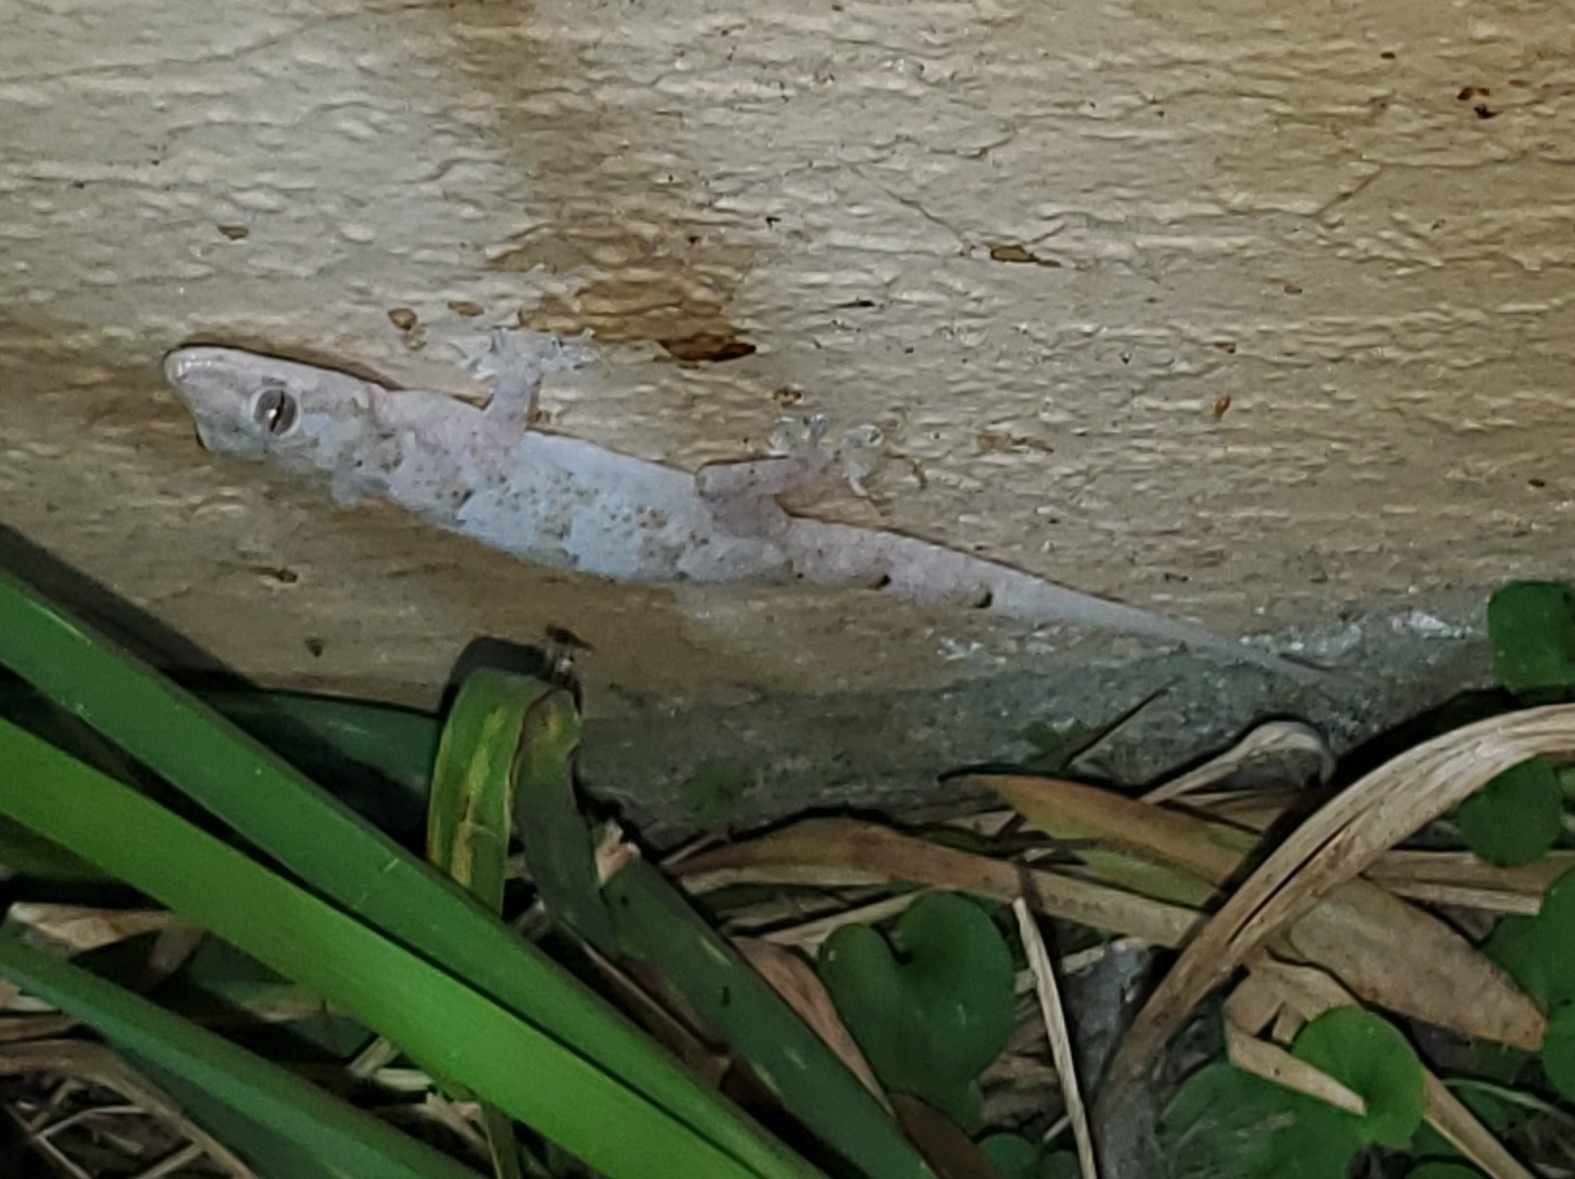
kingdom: Animalia
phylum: Chordata
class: Squamata
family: Gekkonidae
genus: Hemidactylus
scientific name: Hemidactylus mabouia
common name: House gecko
